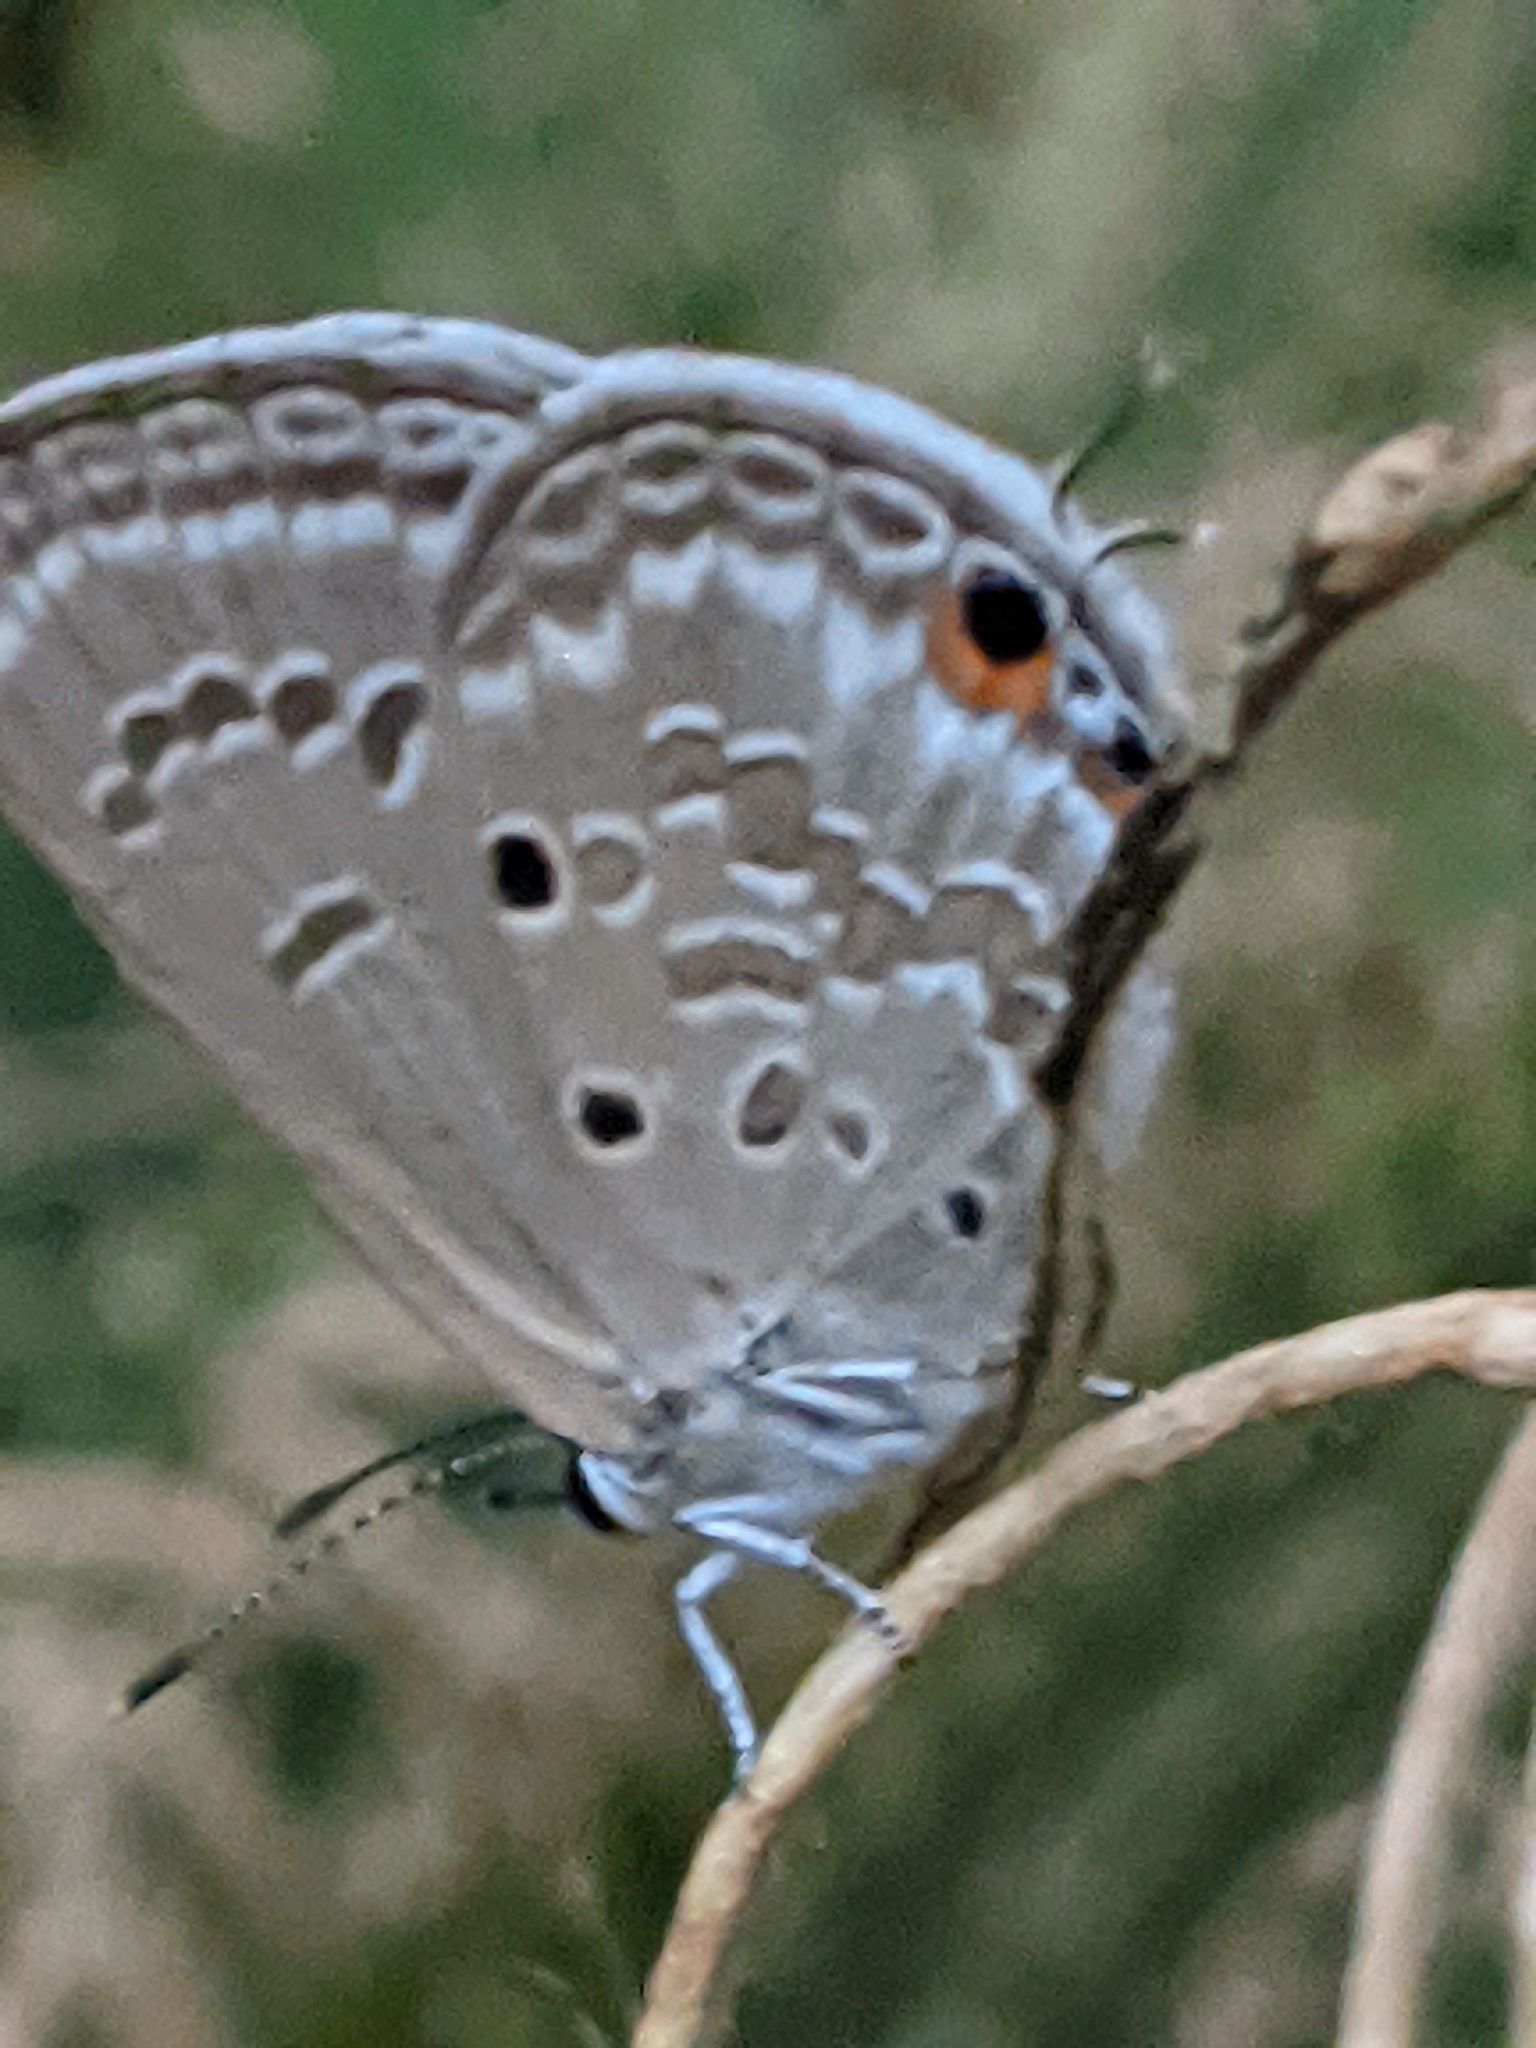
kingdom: Animalia
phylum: Arthropoda
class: Insecta
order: Lepidoptera
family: Lycaenidae
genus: Luthrodes
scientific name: Luthrodes pandava
